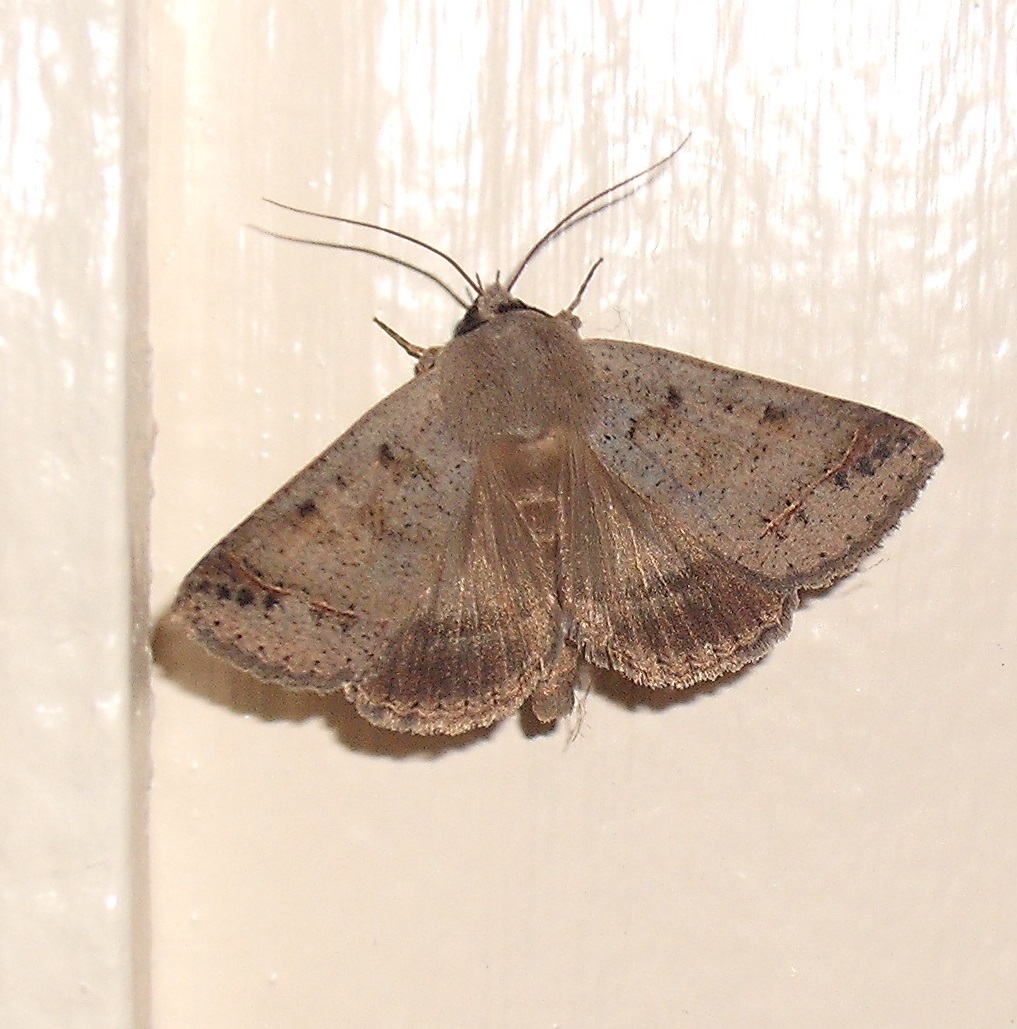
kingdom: Animalia
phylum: Arthropoda
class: Insecta
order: Lepidoptera
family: Erebidae
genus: Pantydia
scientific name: Pantydia sparsa
